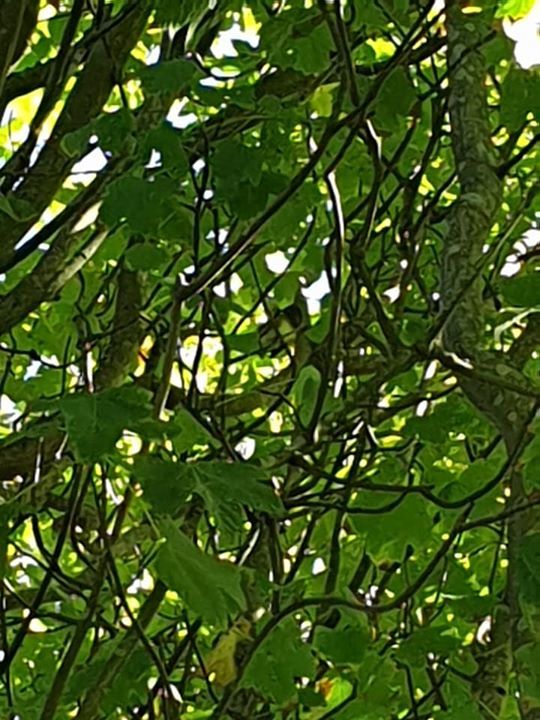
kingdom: Animalia
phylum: Chordata
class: Aves
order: Passeriformes
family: Zosteropidae
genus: Zosterops
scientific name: Zosterops lateralis
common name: Silvereye
